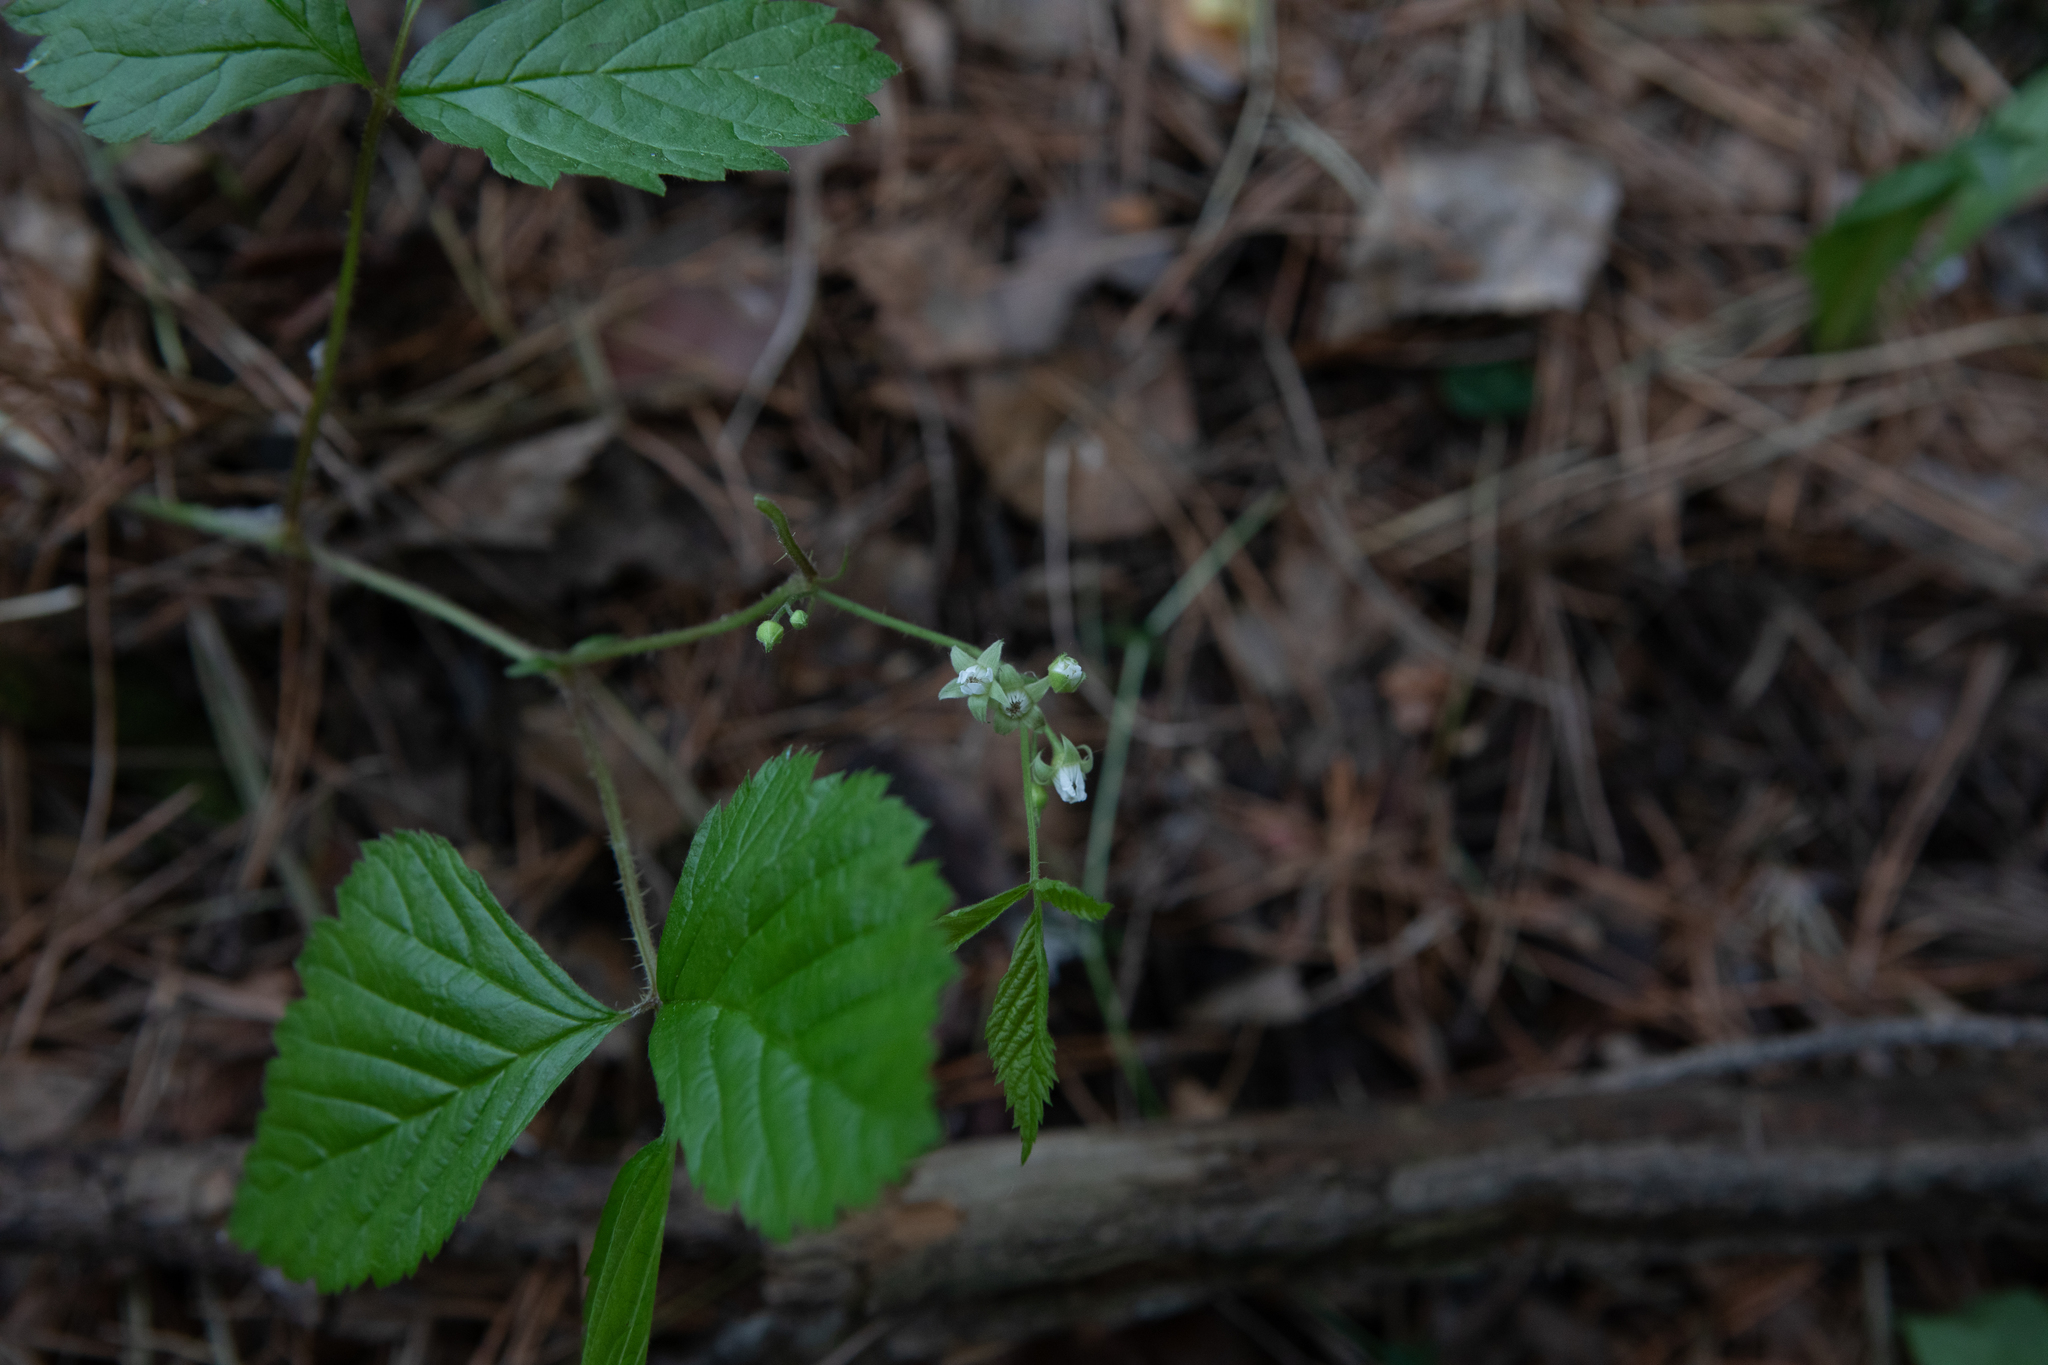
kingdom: Plantae
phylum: Tracheophyta
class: Magnoliopsida
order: Rosales
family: Rosaceae
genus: Rubus
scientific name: Rubus saxatilis
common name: Stone bramble
